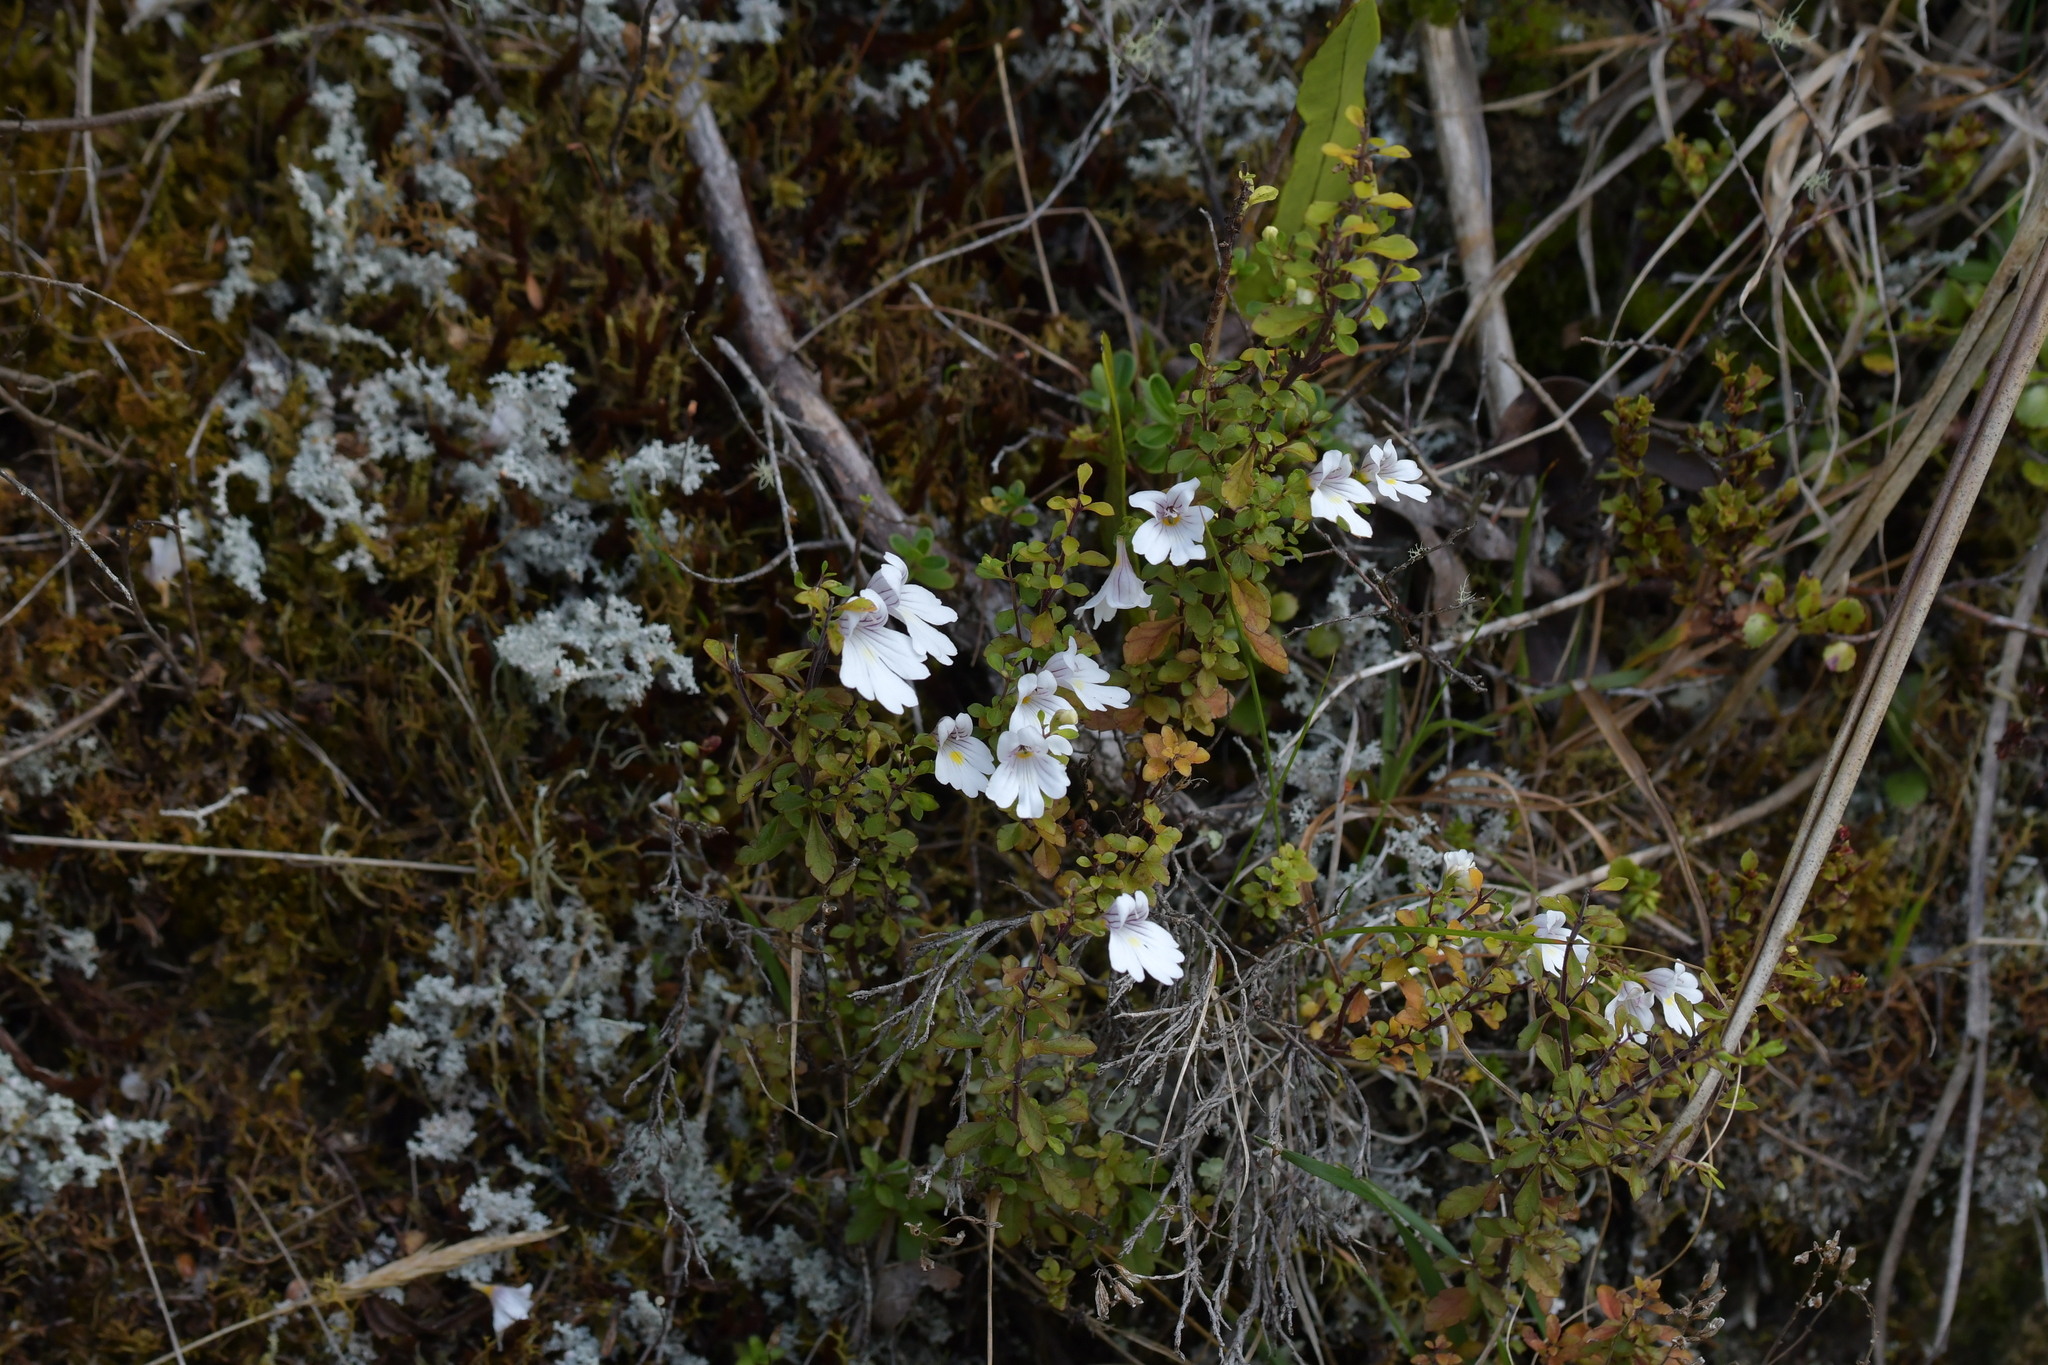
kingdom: Plantae
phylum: Tracheophyta
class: Magnoliopsida
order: Lamiales
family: Orobanchaceae
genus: Euphrasia
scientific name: Euphrasia cuneata
